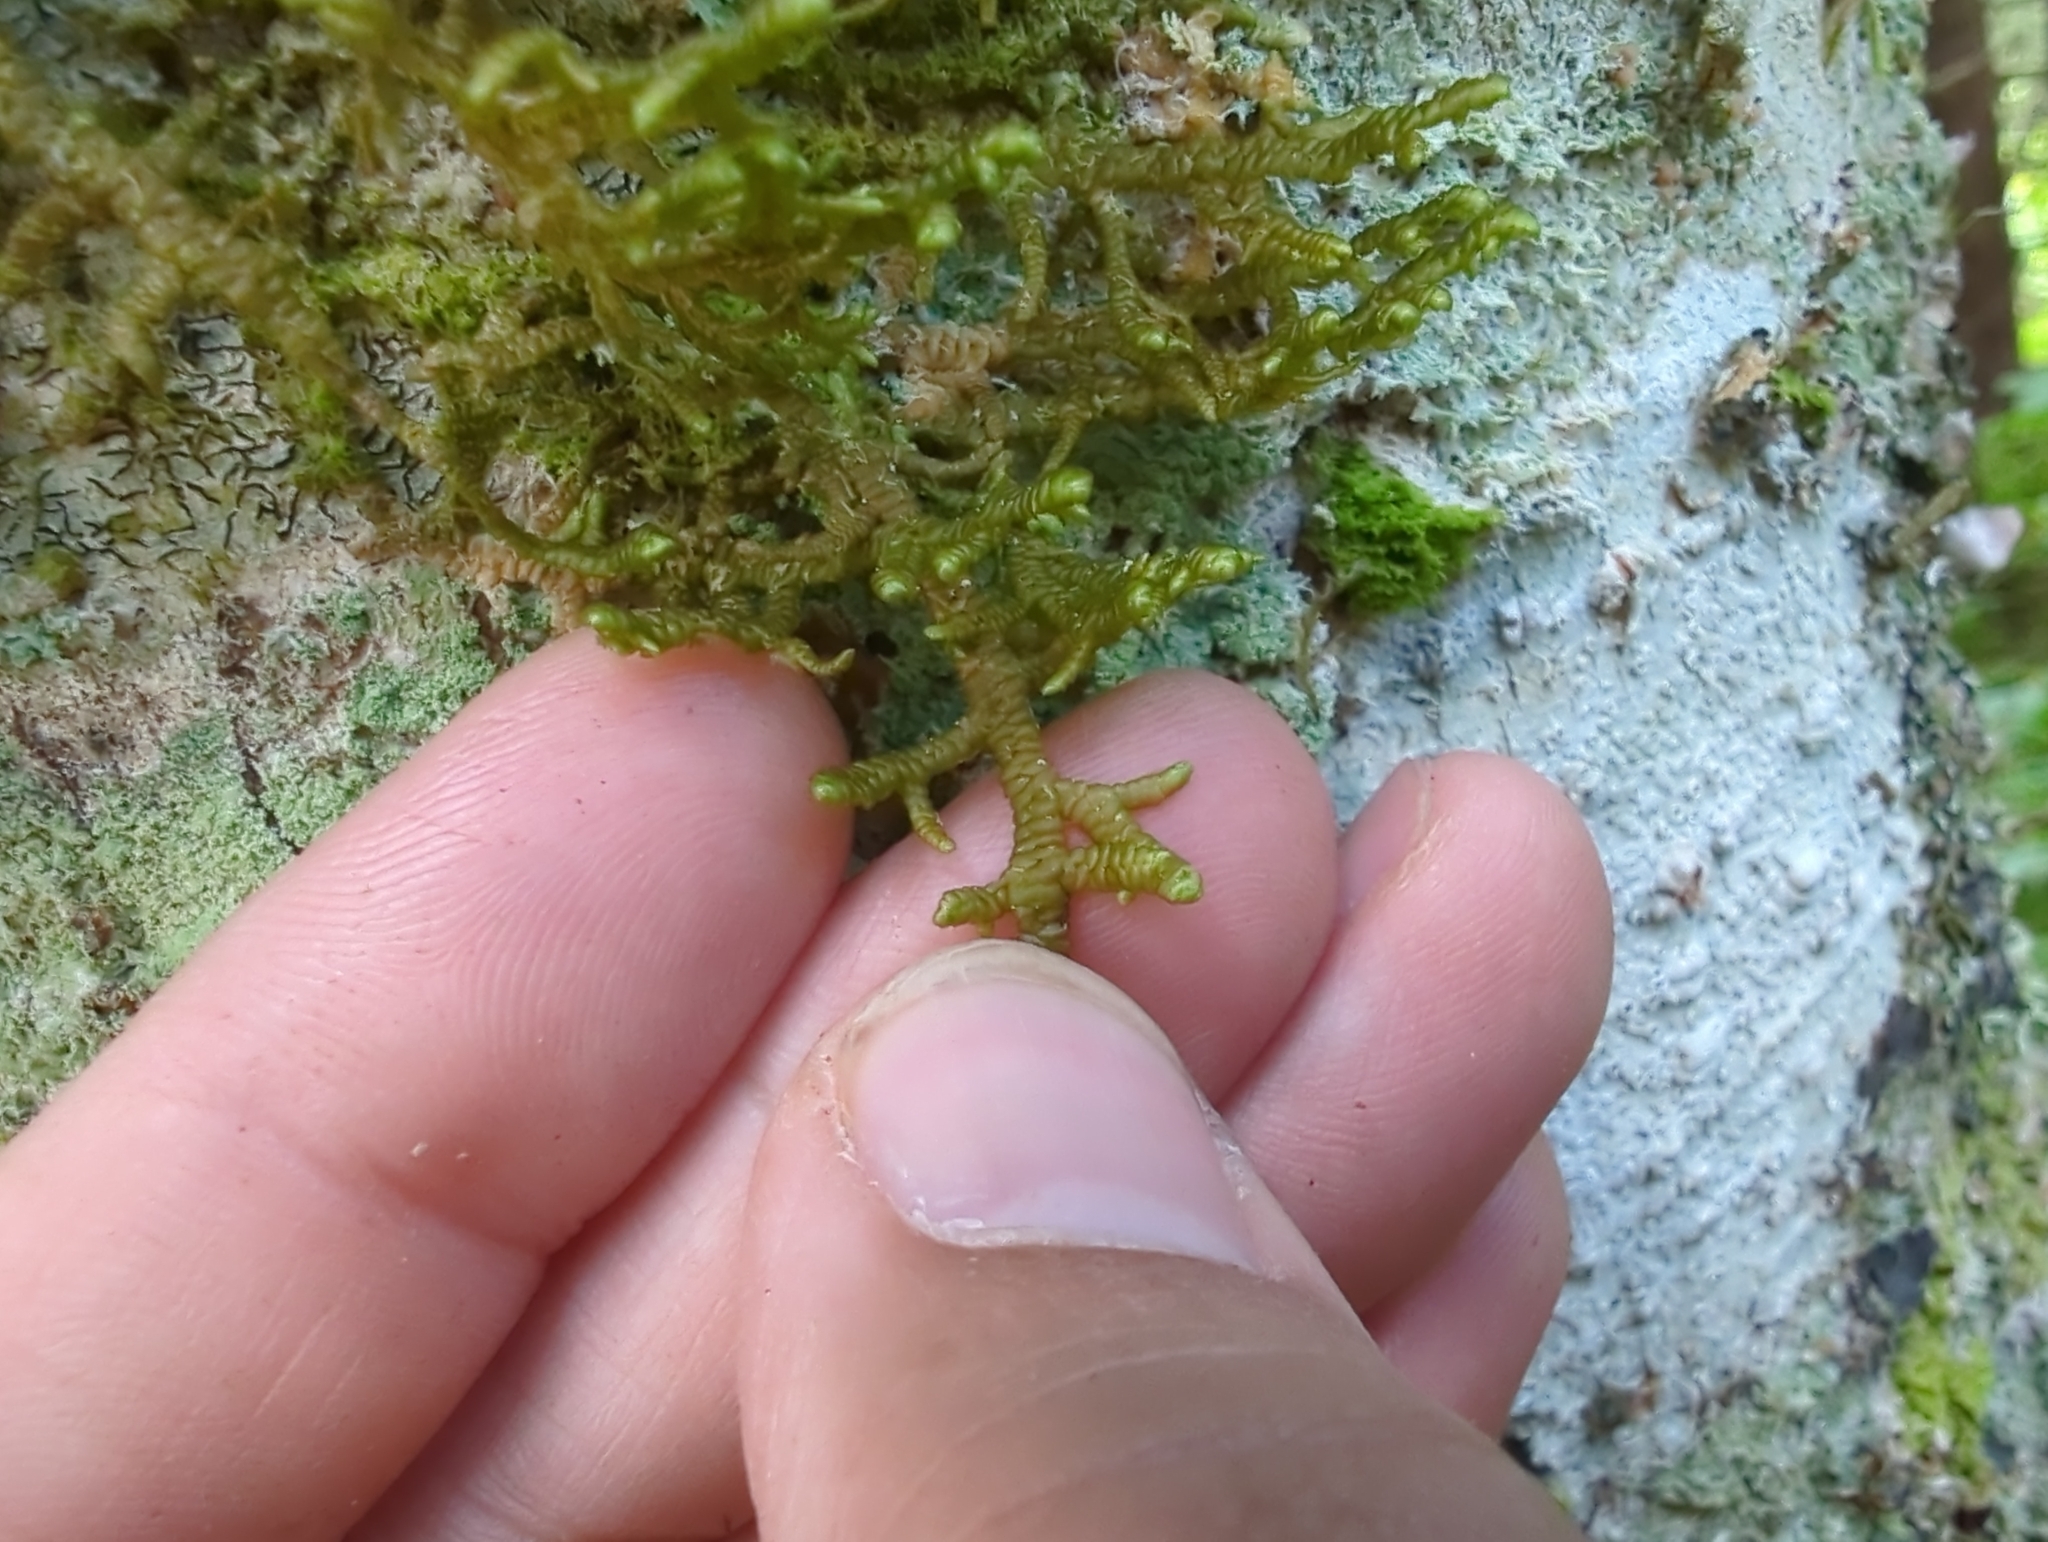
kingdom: Plantae
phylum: Marchantiophyta
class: Jungermanniopsida
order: Porellales
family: Porellaceae
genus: Porella
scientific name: Porella navicularis
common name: Tree ruffle liverwort
